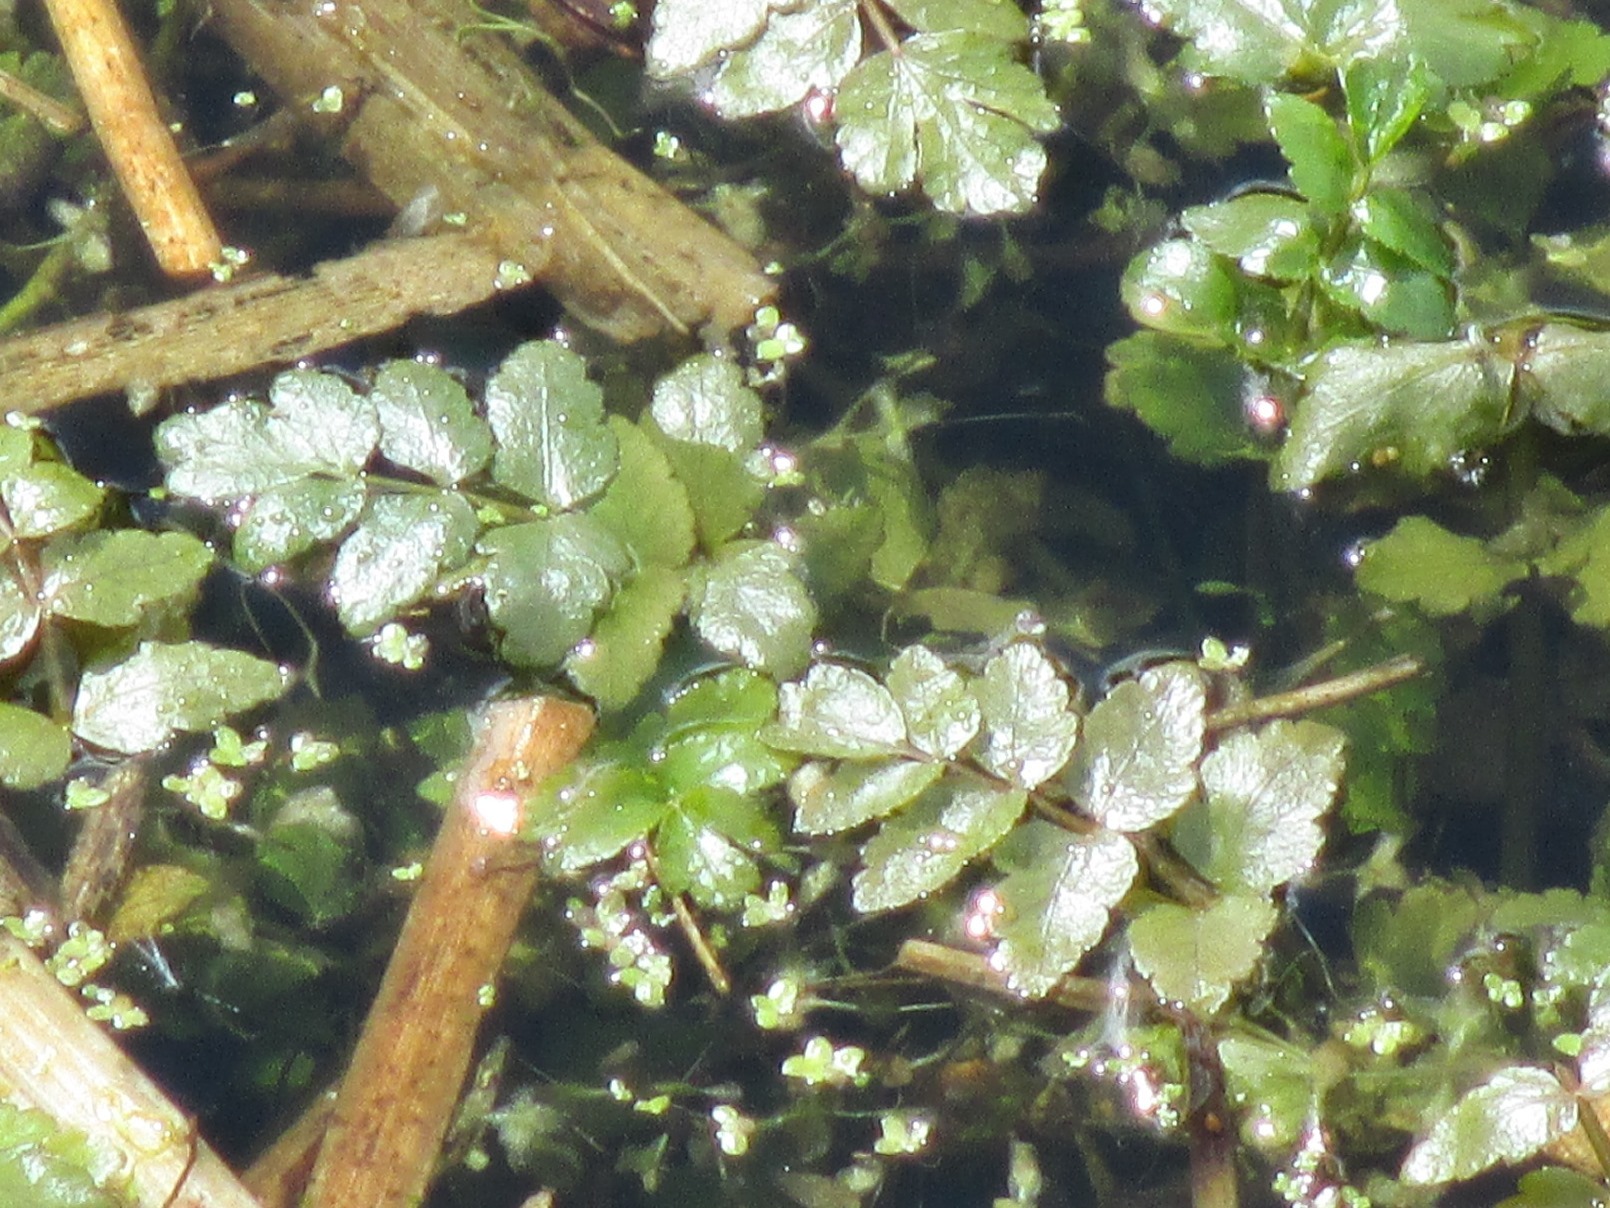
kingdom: Plantae
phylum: Tracheophyta
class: Magnoliopsida
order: Apiales
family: Apiaceae
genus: Helosciadium
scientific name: Helosciadium nodiflorum
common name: Fool's-watercress
